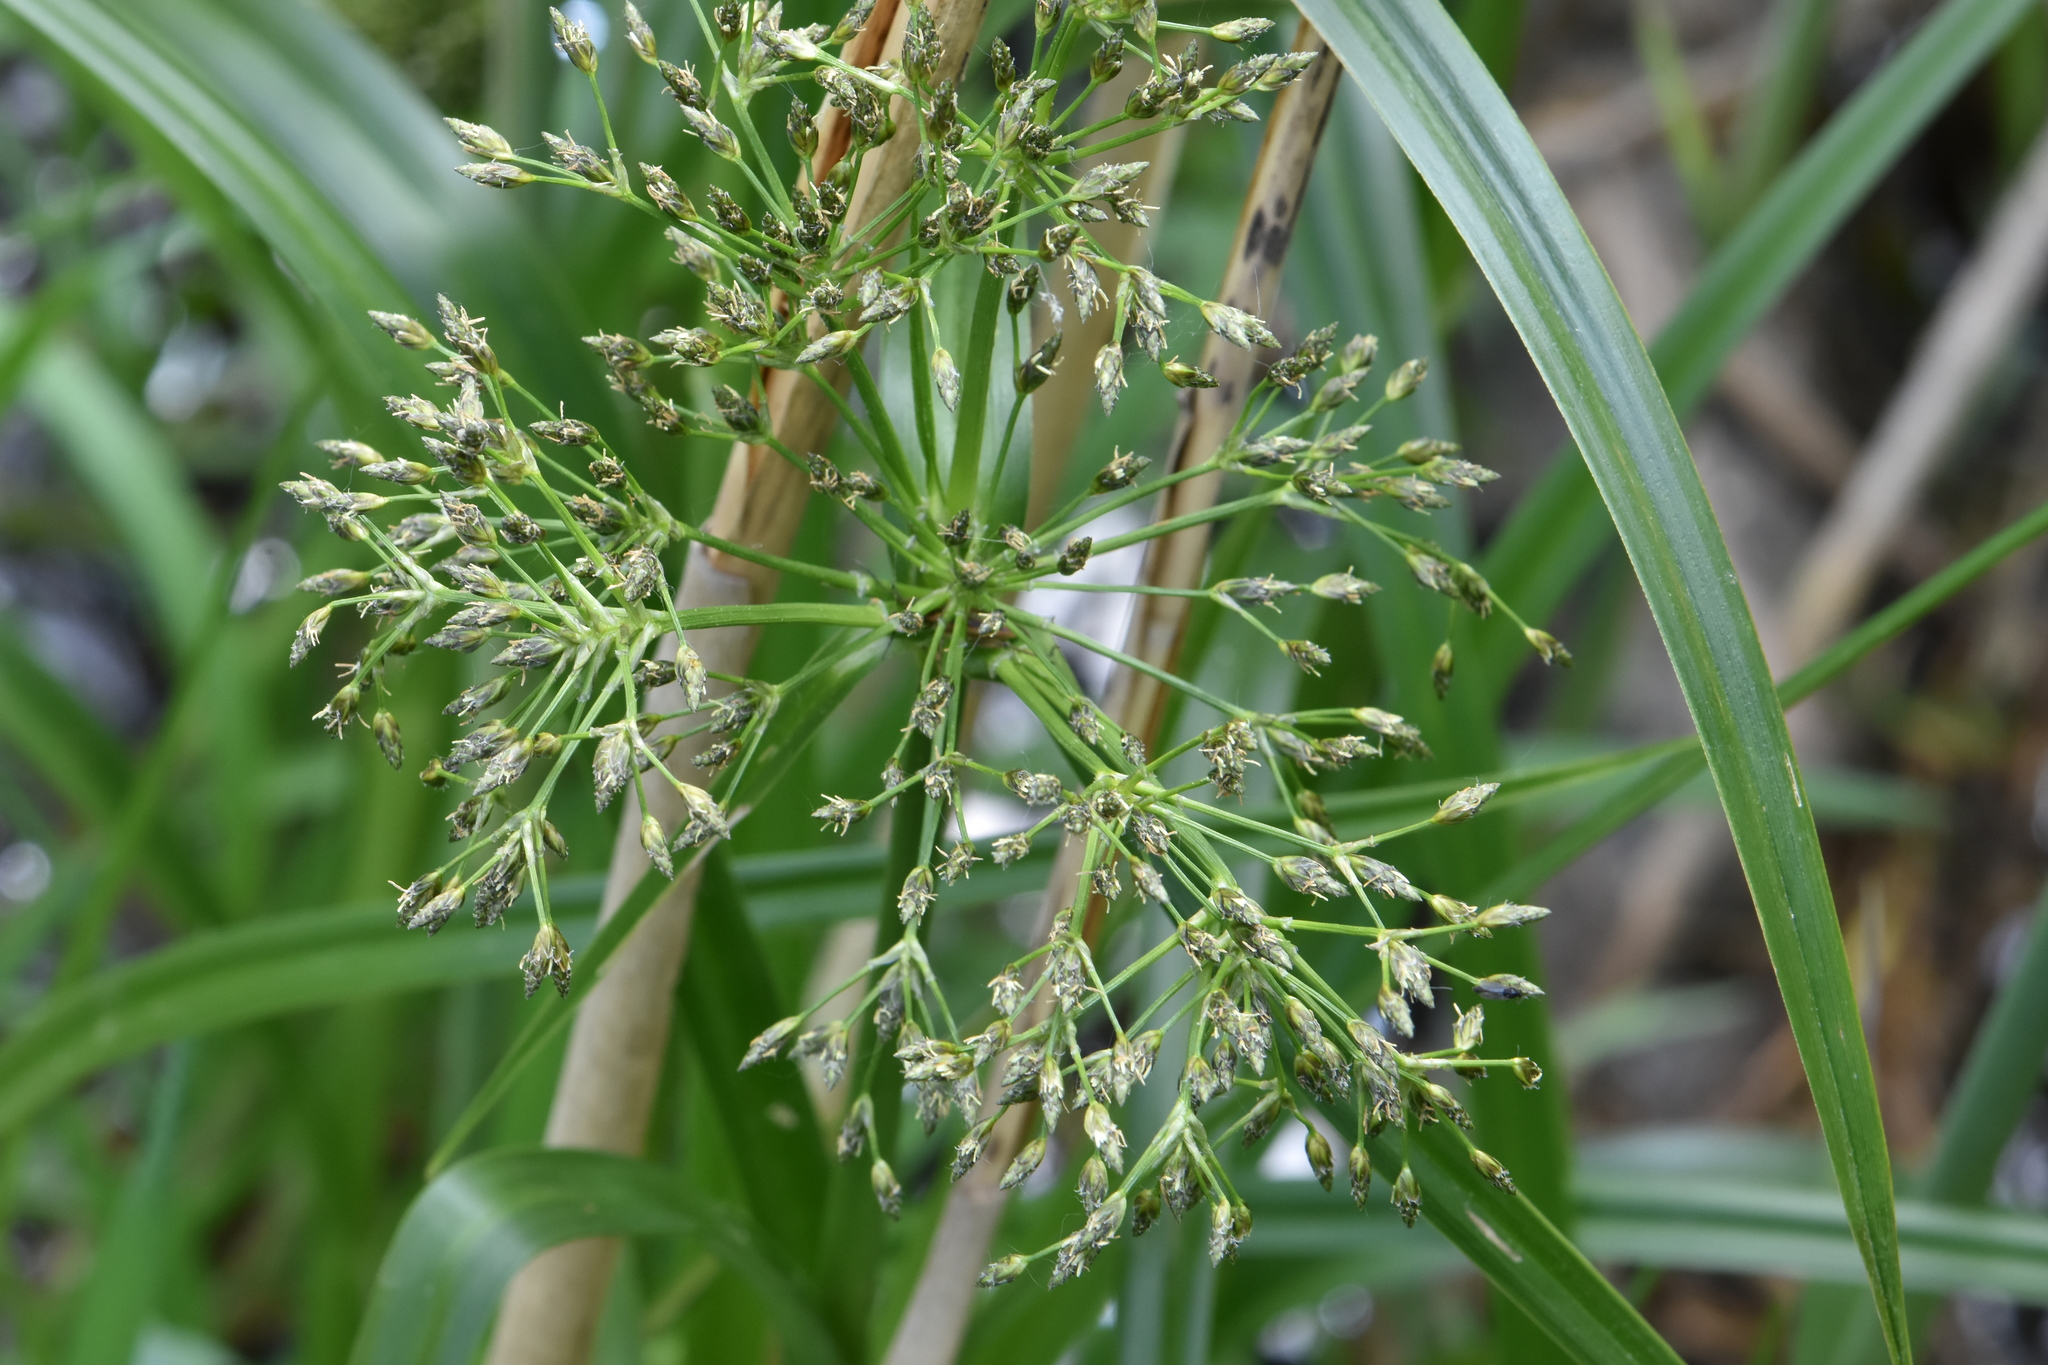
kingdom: Plantae
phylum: Tracheophyta
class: Liliopsida
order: Poales
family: Cyperaceae
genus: Scirpus
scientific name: Scirpus sylvaticus
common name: Wood club-rush
